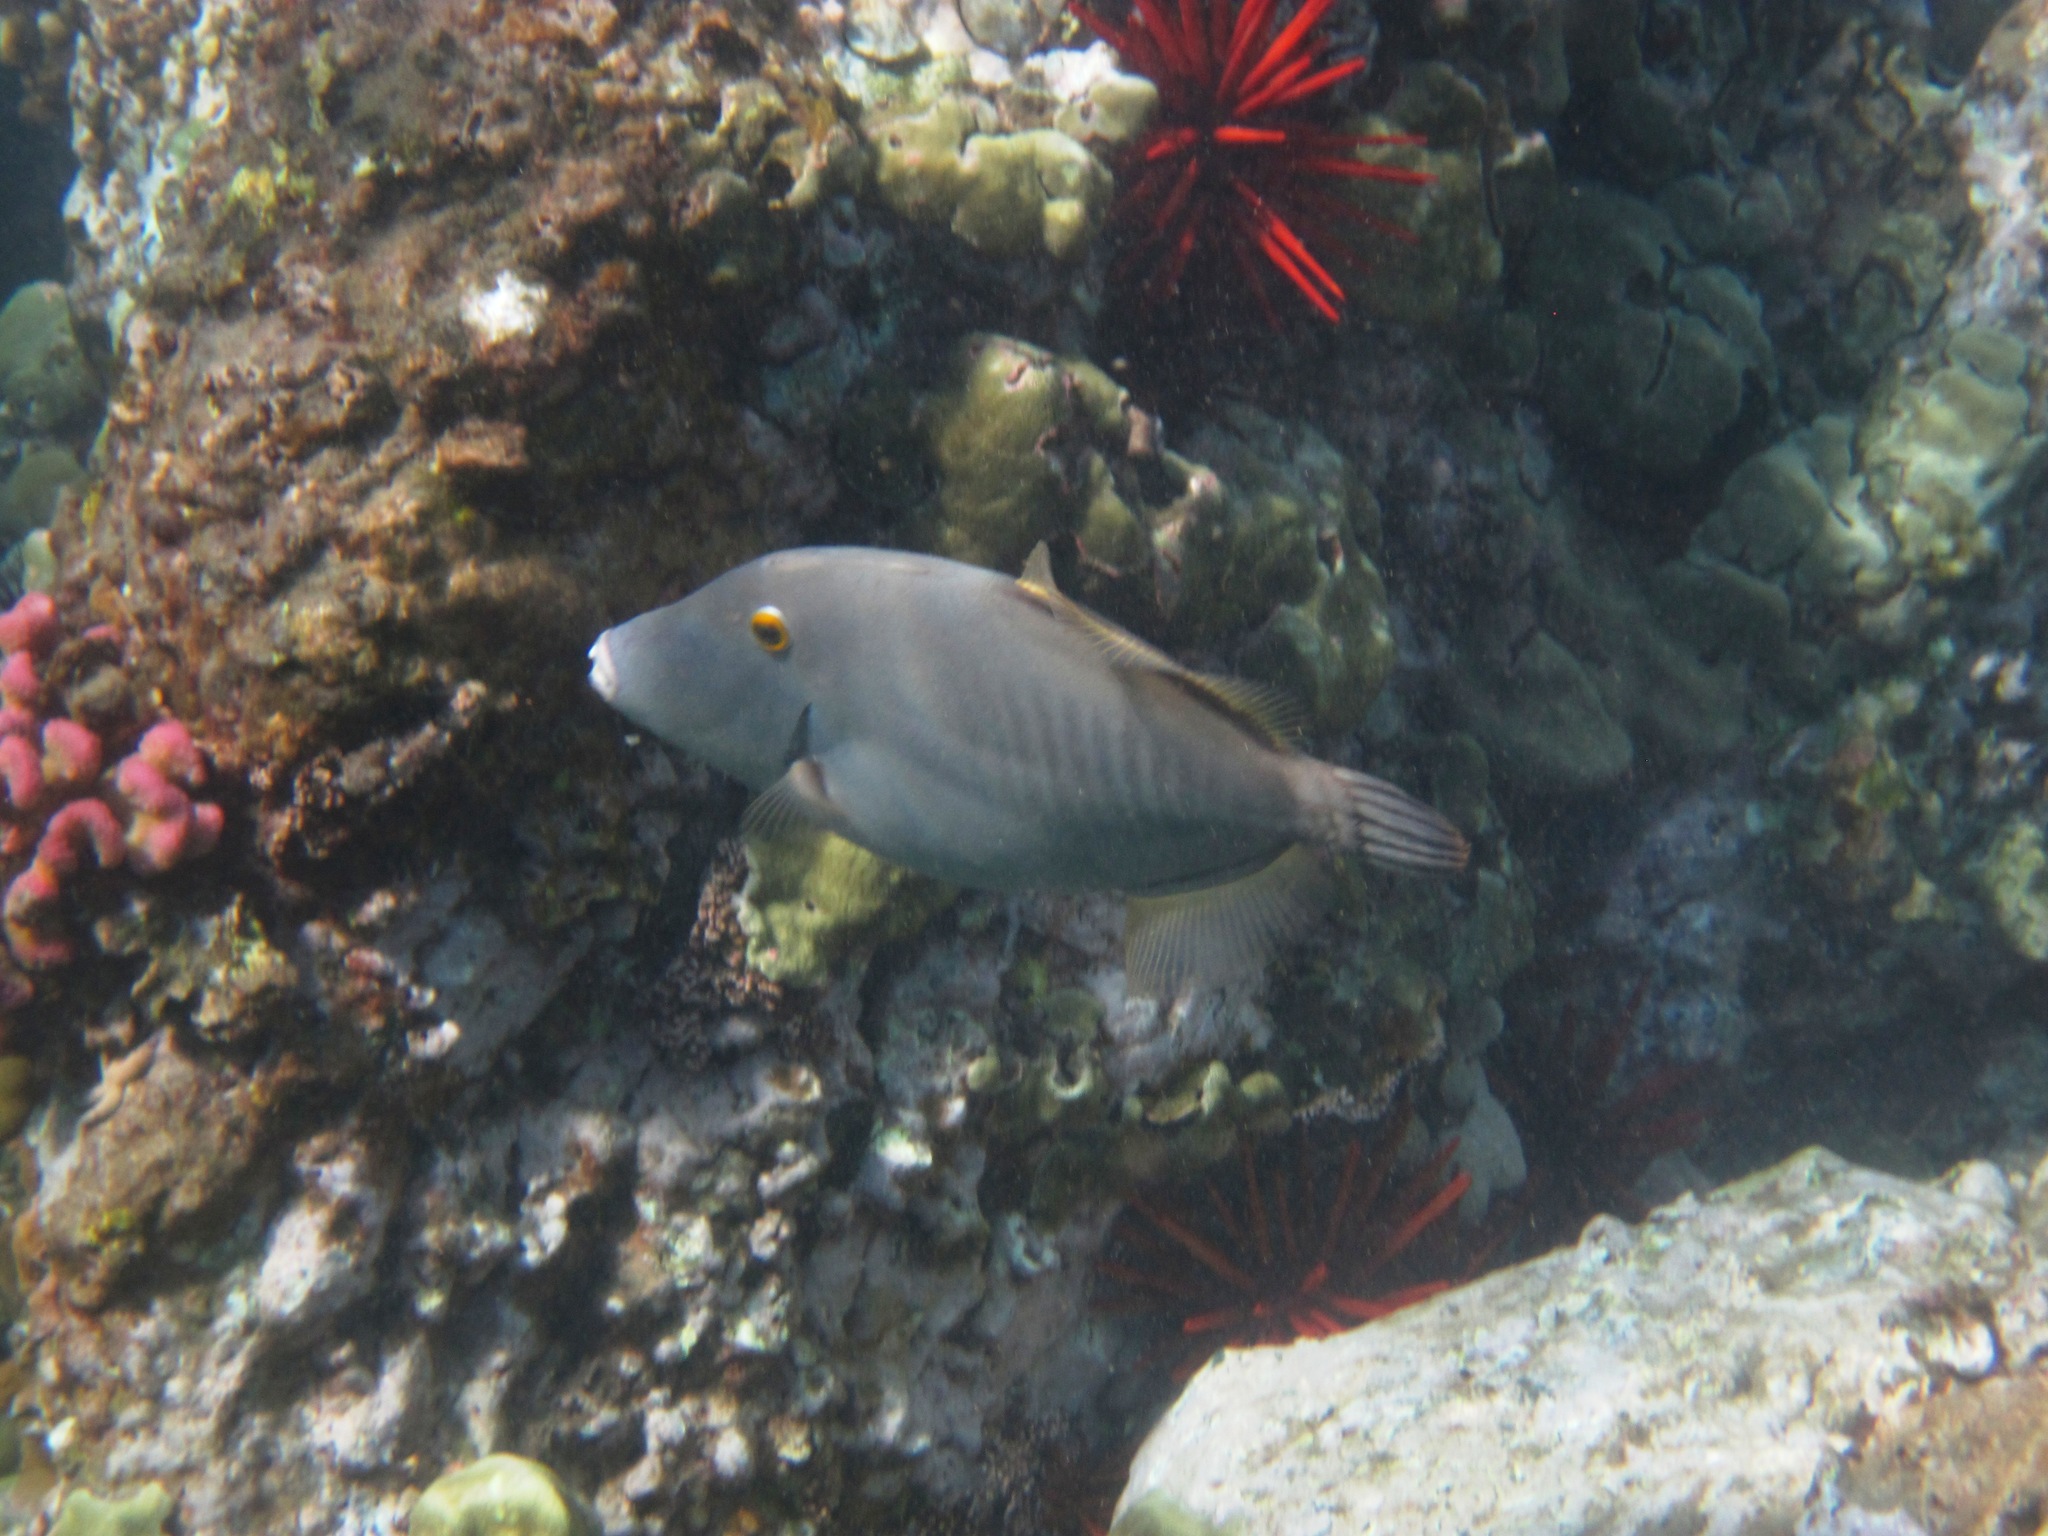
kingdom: Animalia
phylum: Chordata
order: Tetraodontiformes
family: Monacanthidae
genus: Cantherhines
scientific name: Cantherhines dumerilii
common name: Barred filefish
